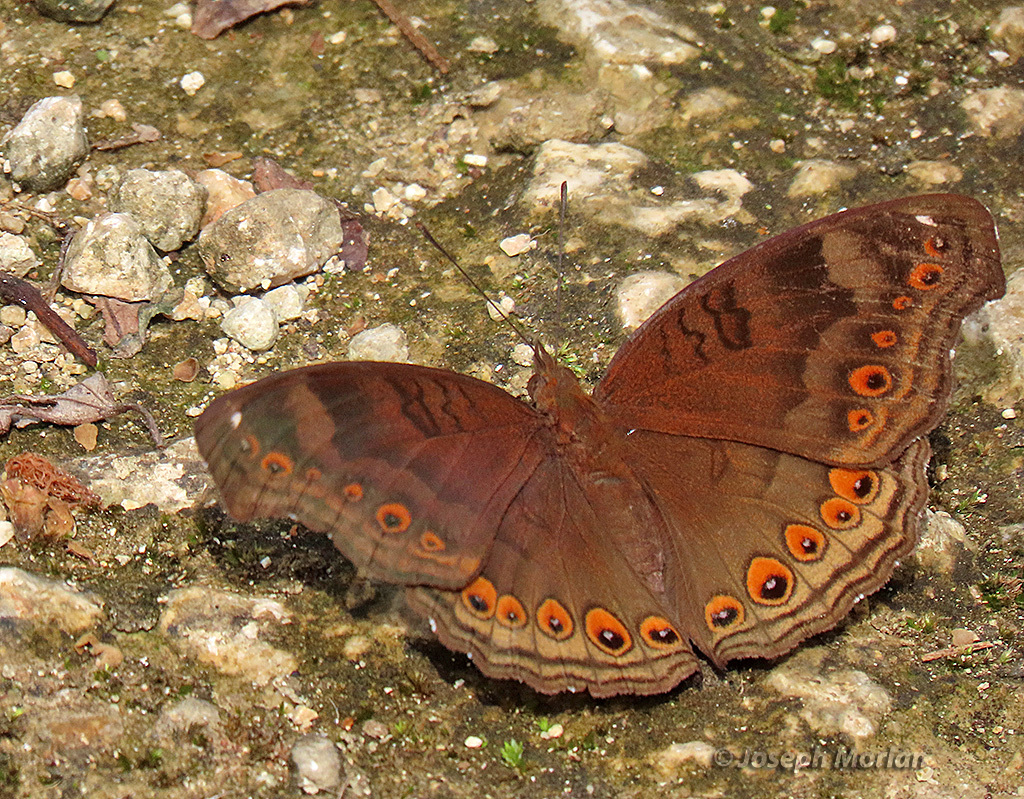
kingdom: Animalia
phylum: Arthropoda
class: Insecta
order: Lepidoptera
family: Nymphalidae
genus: Junonia
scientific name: Junonia hedonia
